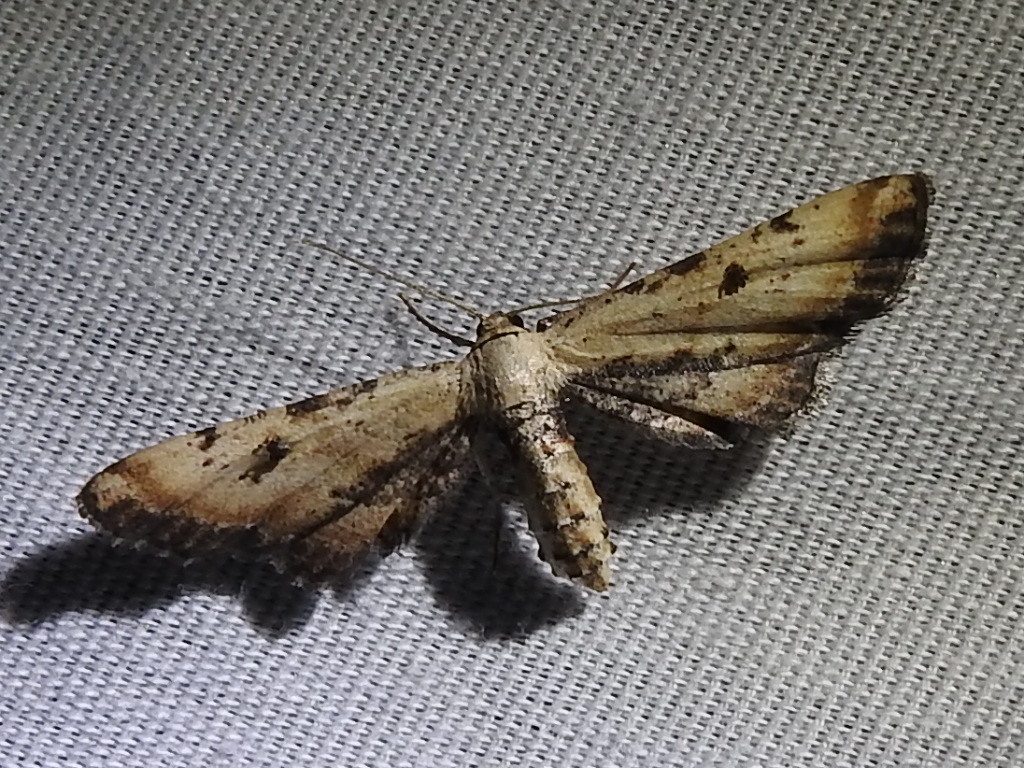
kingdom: Animalia
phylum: Arthropoda
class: Insecta
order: Lepidoptera
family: Geometridae
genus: Tornos
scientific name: Tornos scolopacinaria
